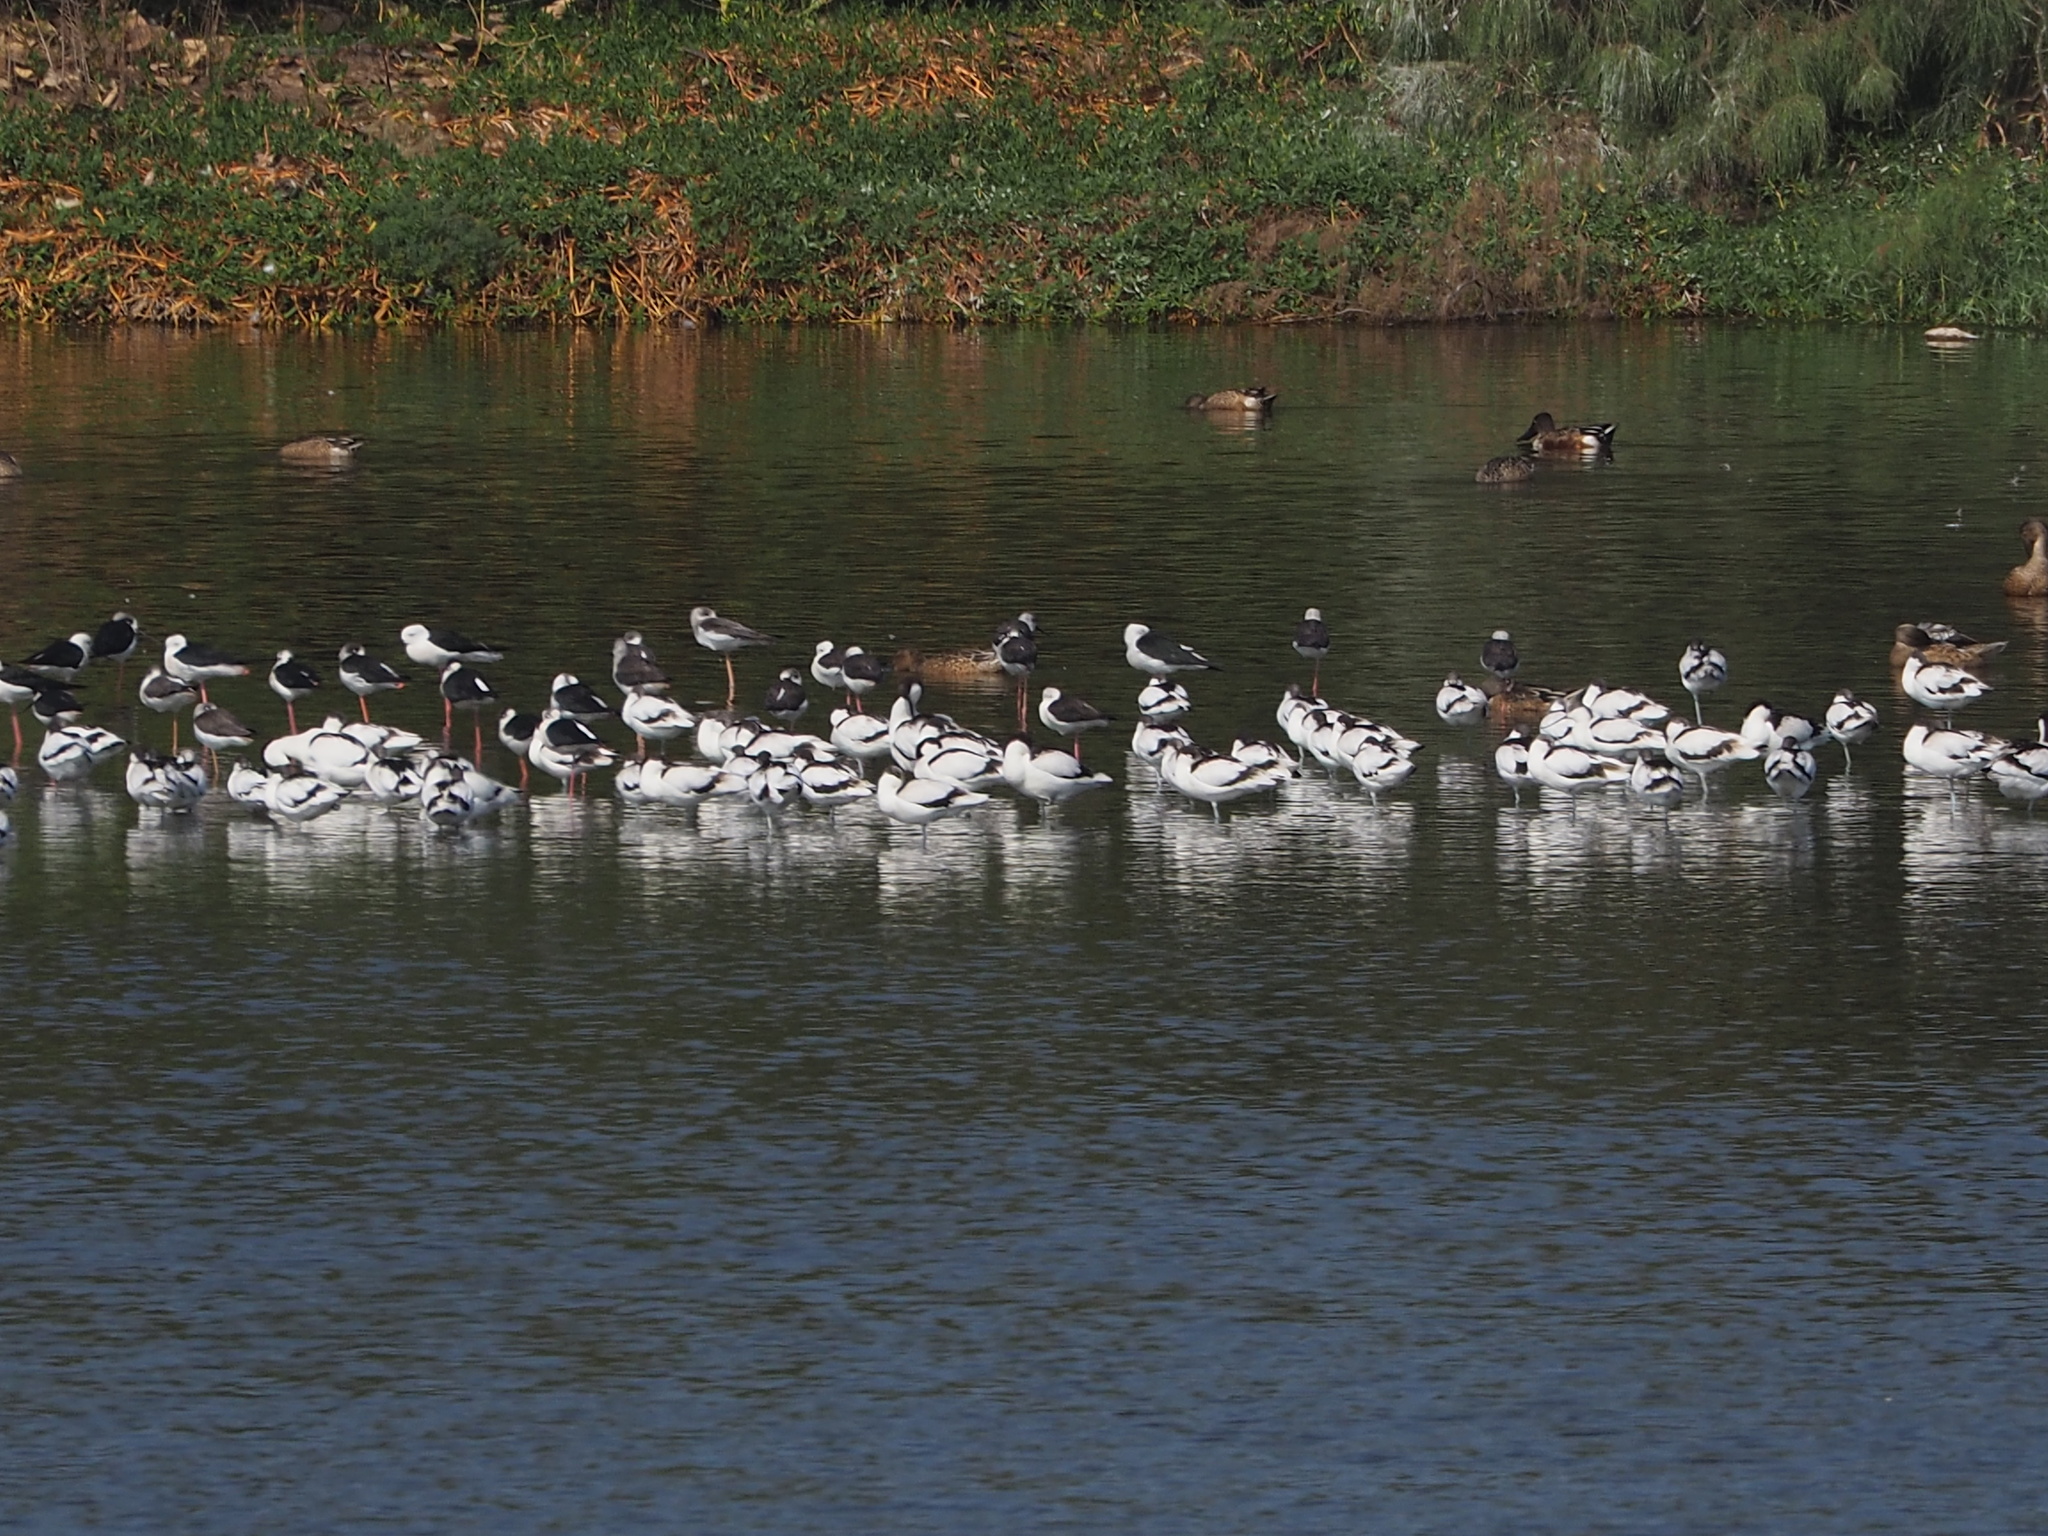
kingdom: Animalia
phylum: Chordata
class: Aves
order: Charadriiformes
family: Recurvirostridae
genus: Recurvirostra
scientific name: Recurvirostra avosetta
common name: Pied avocet
